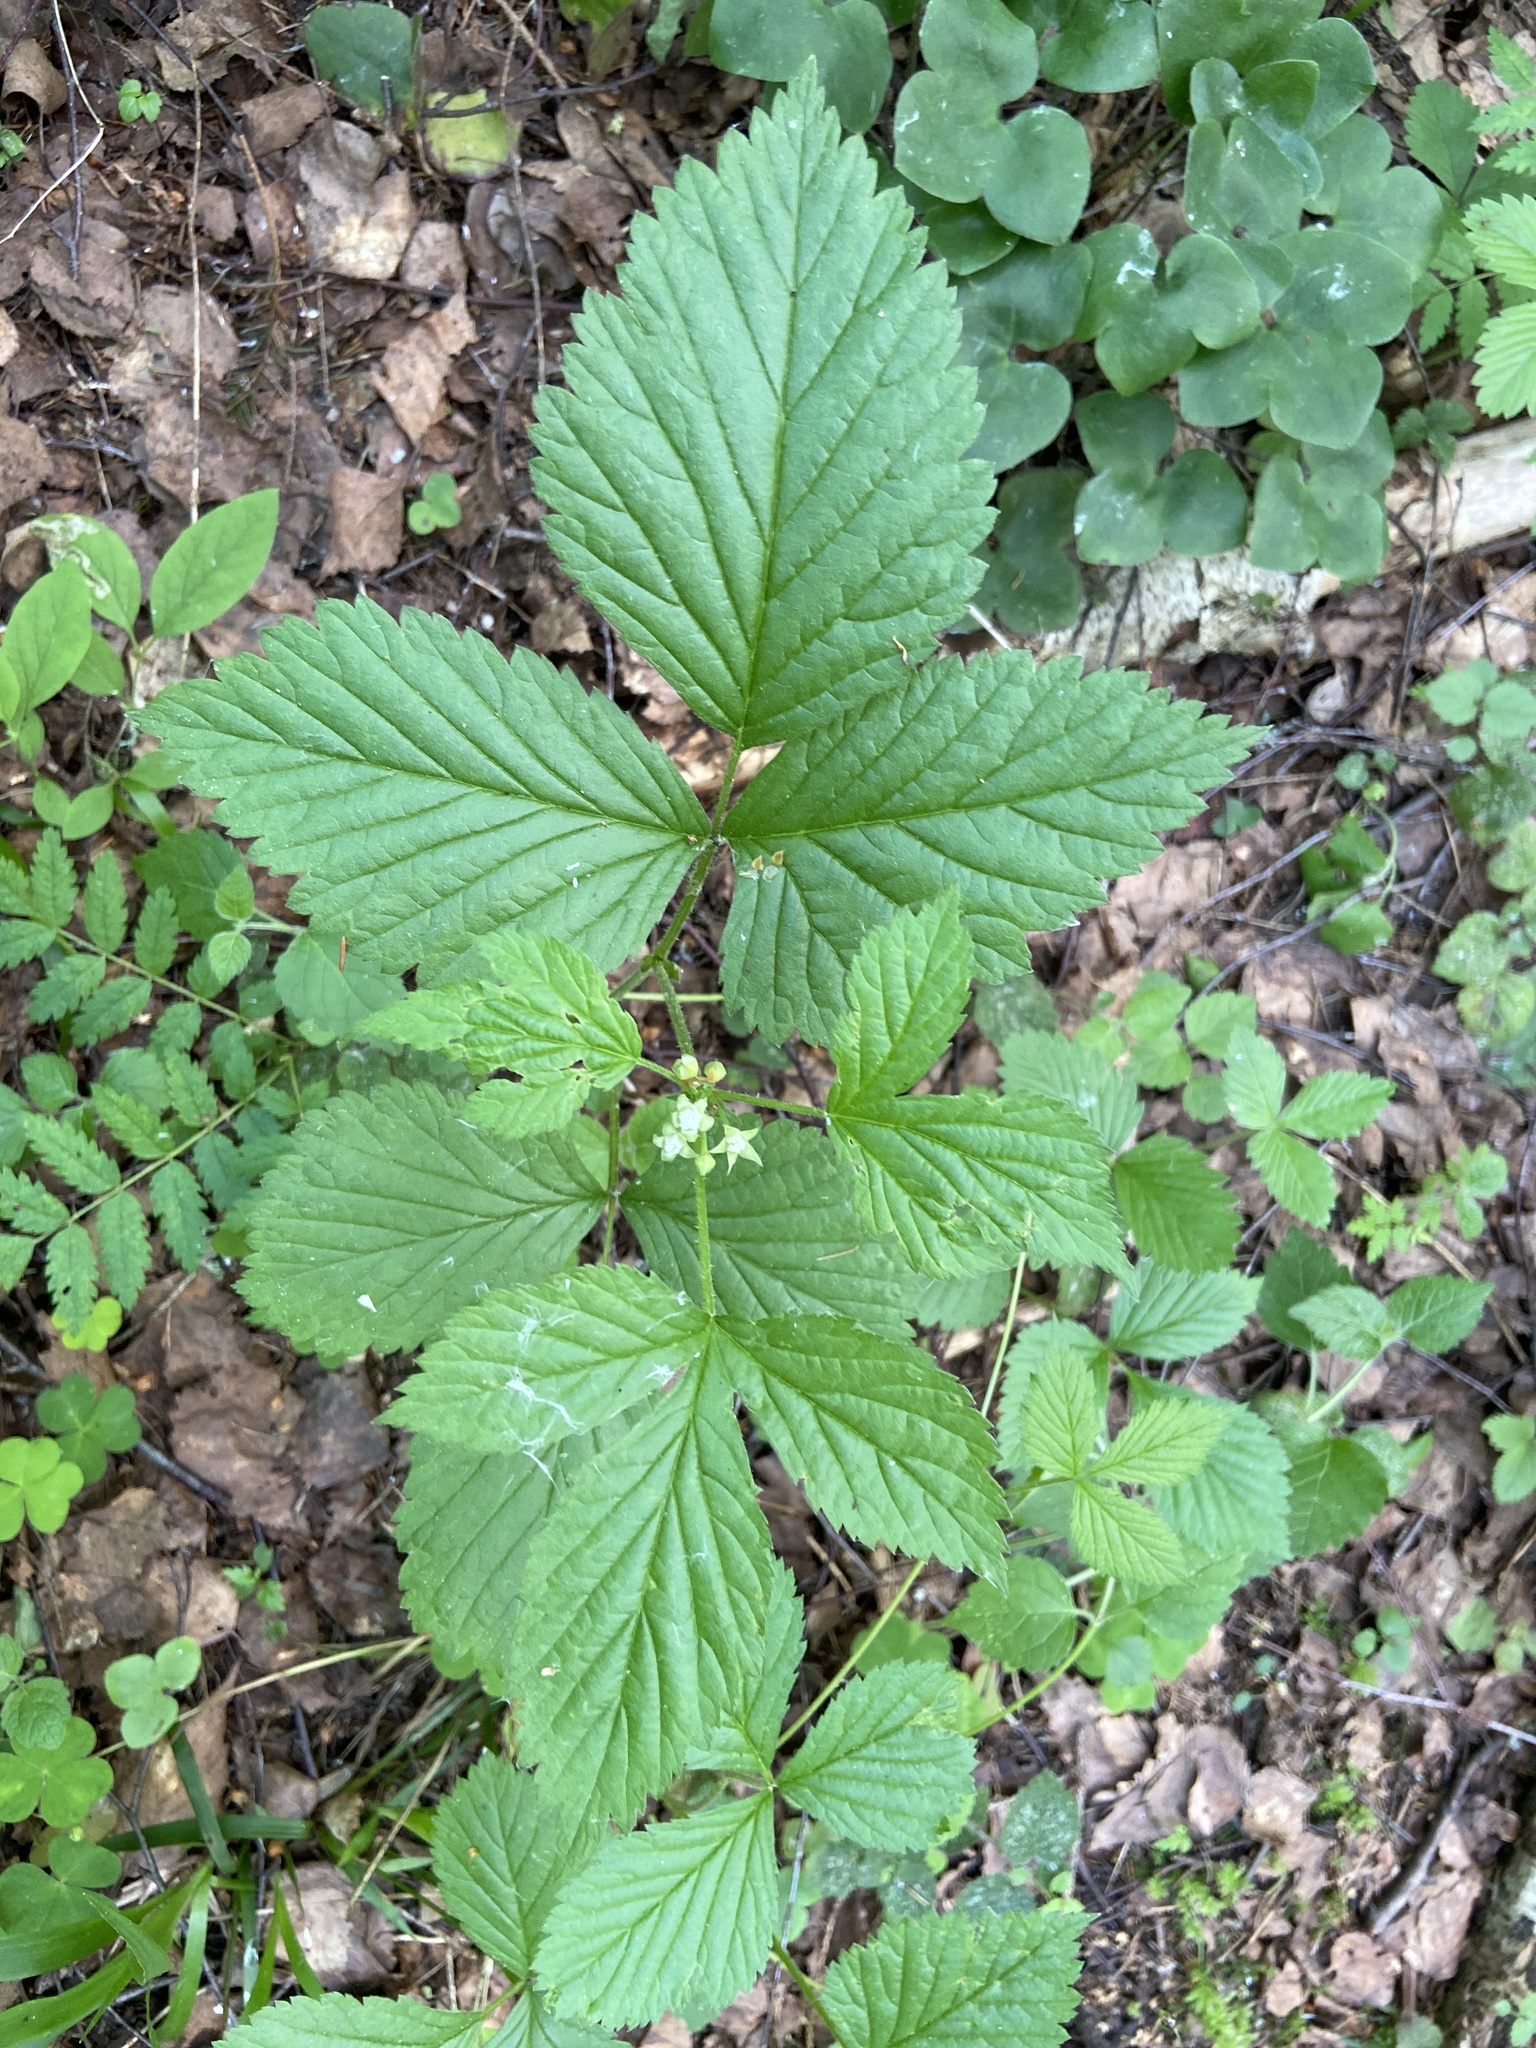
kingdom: Plantae
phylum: Tracheophyta
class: Magnoliopsida
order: Rosales
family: Rosaceae
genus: Rubus
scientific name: Rubus saxatilis
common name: Stone bramble
